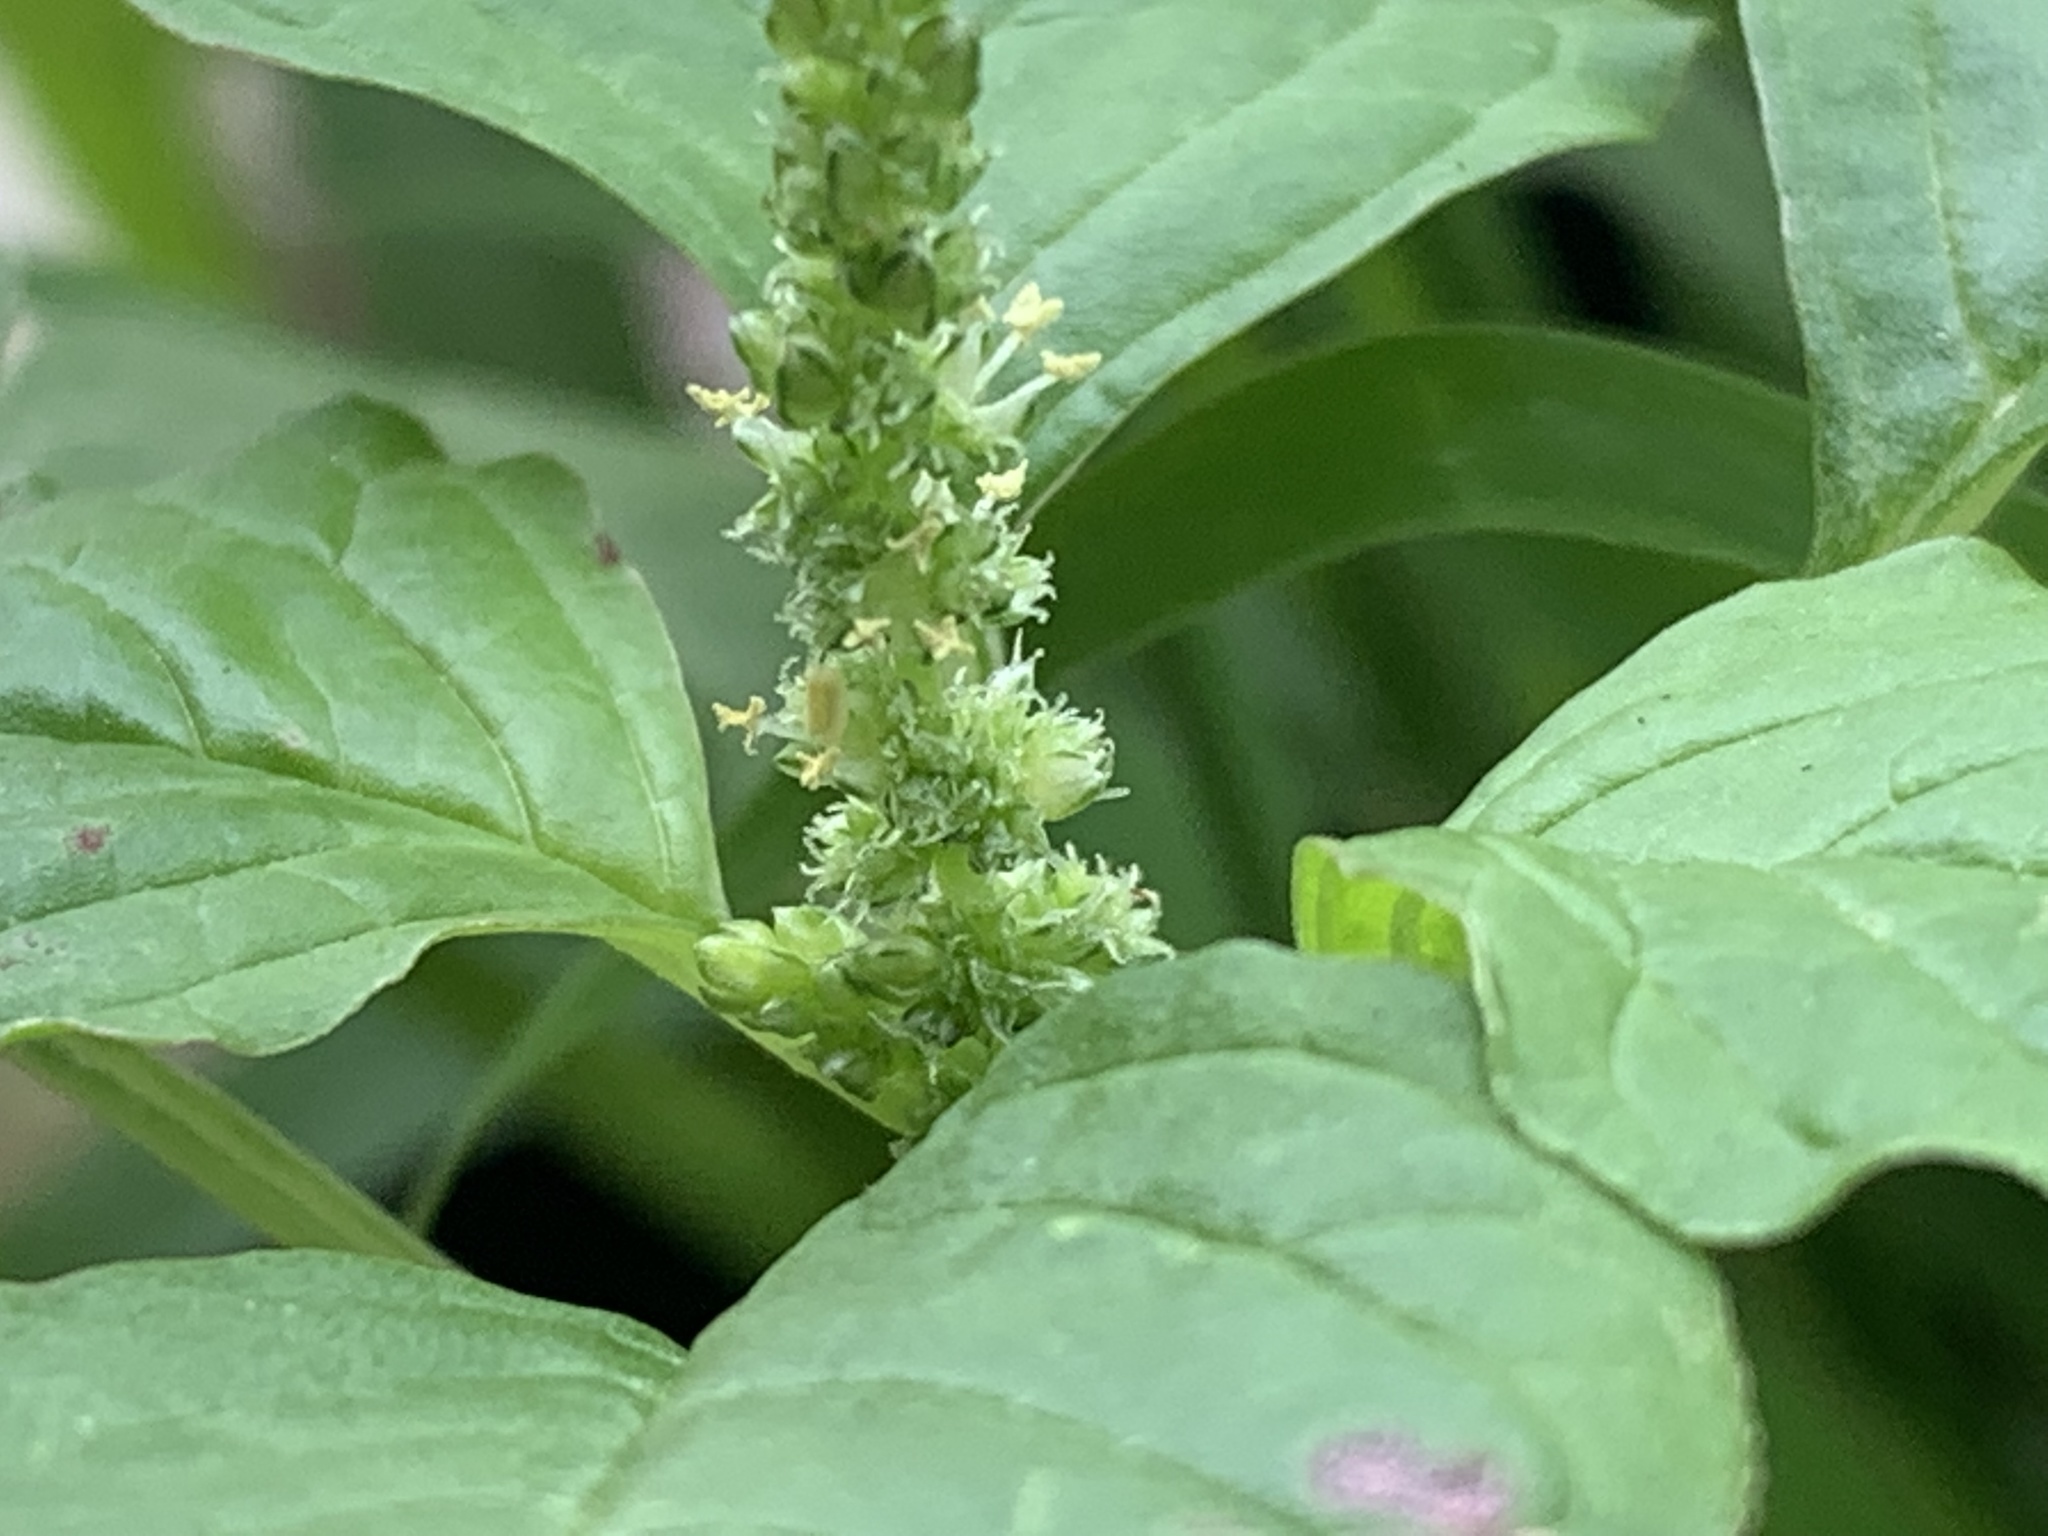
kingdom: Plantae
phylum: Tracheophyta
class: Magnoliopsida
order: Caryophyllales
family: Amaranthaceae
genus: Amaranthus
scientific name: Amaranthus emarginatus
